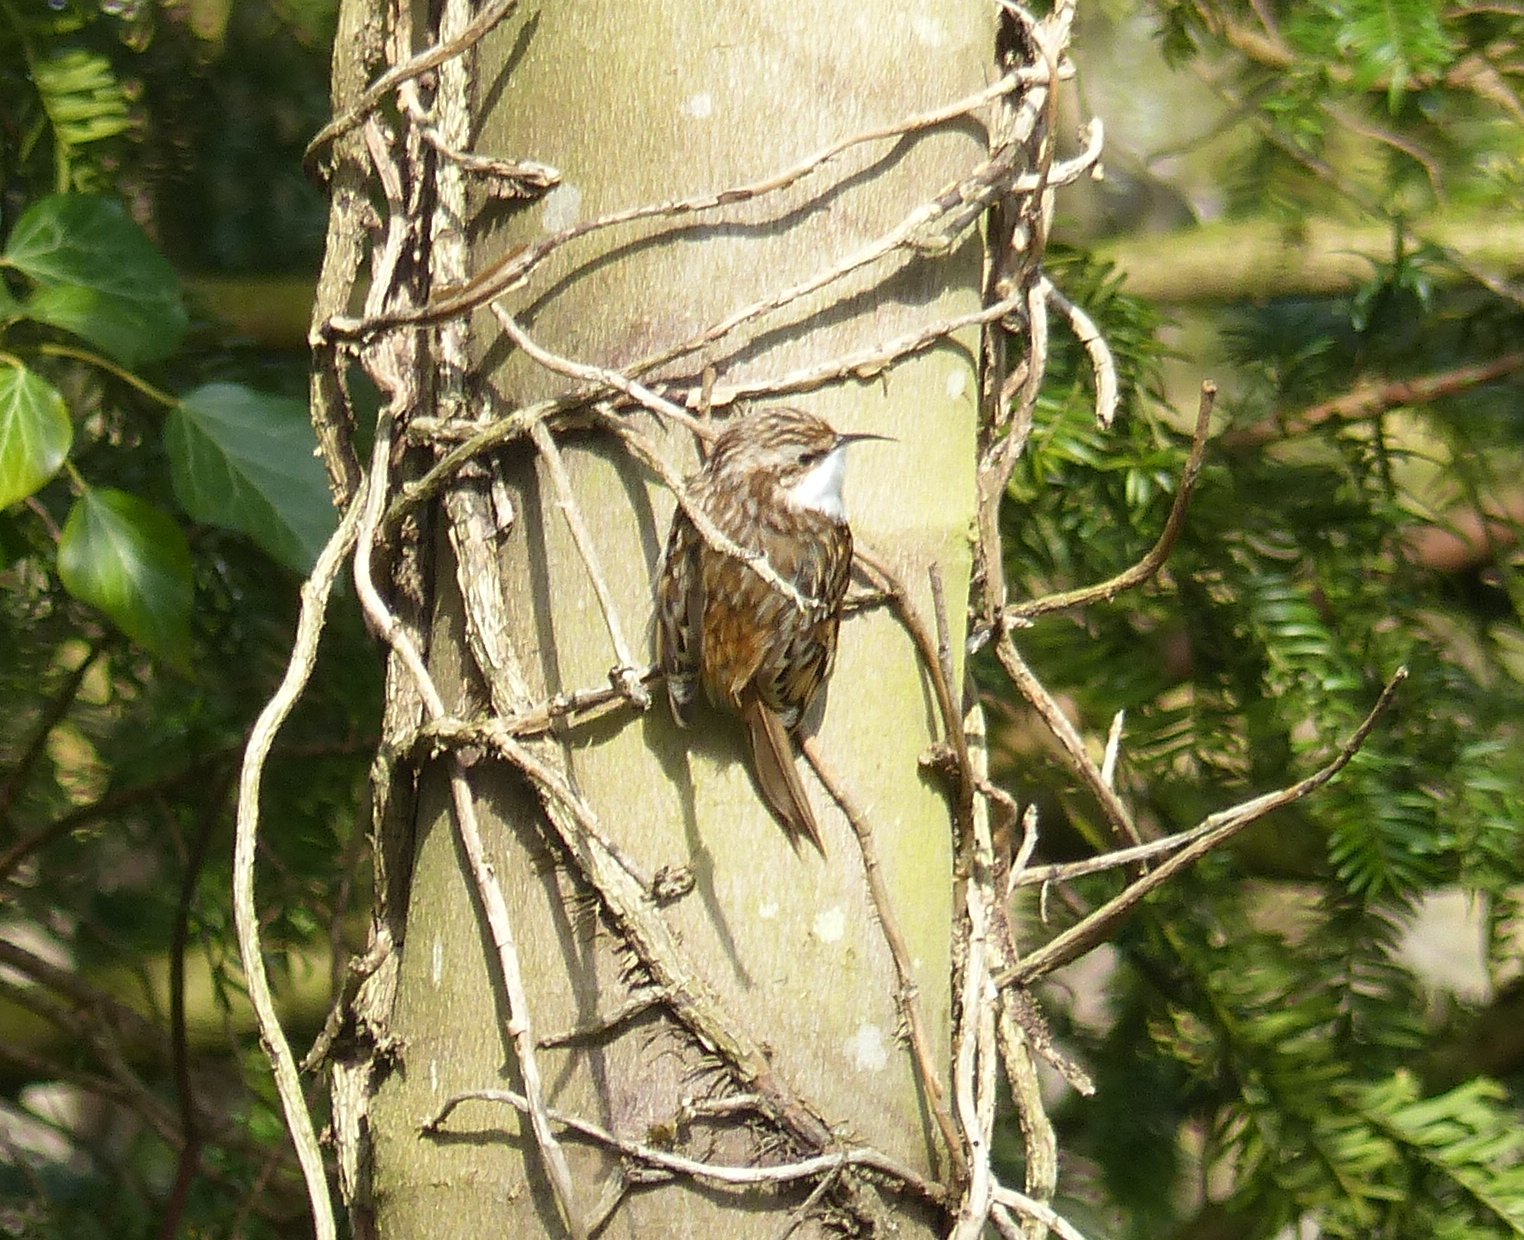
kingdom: Animalia
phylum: Chordata
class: Aves
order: Passeriformes
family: Certhiidae
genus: Certhia
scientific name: Certhia familiaris
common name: Eurasian treecreeper
